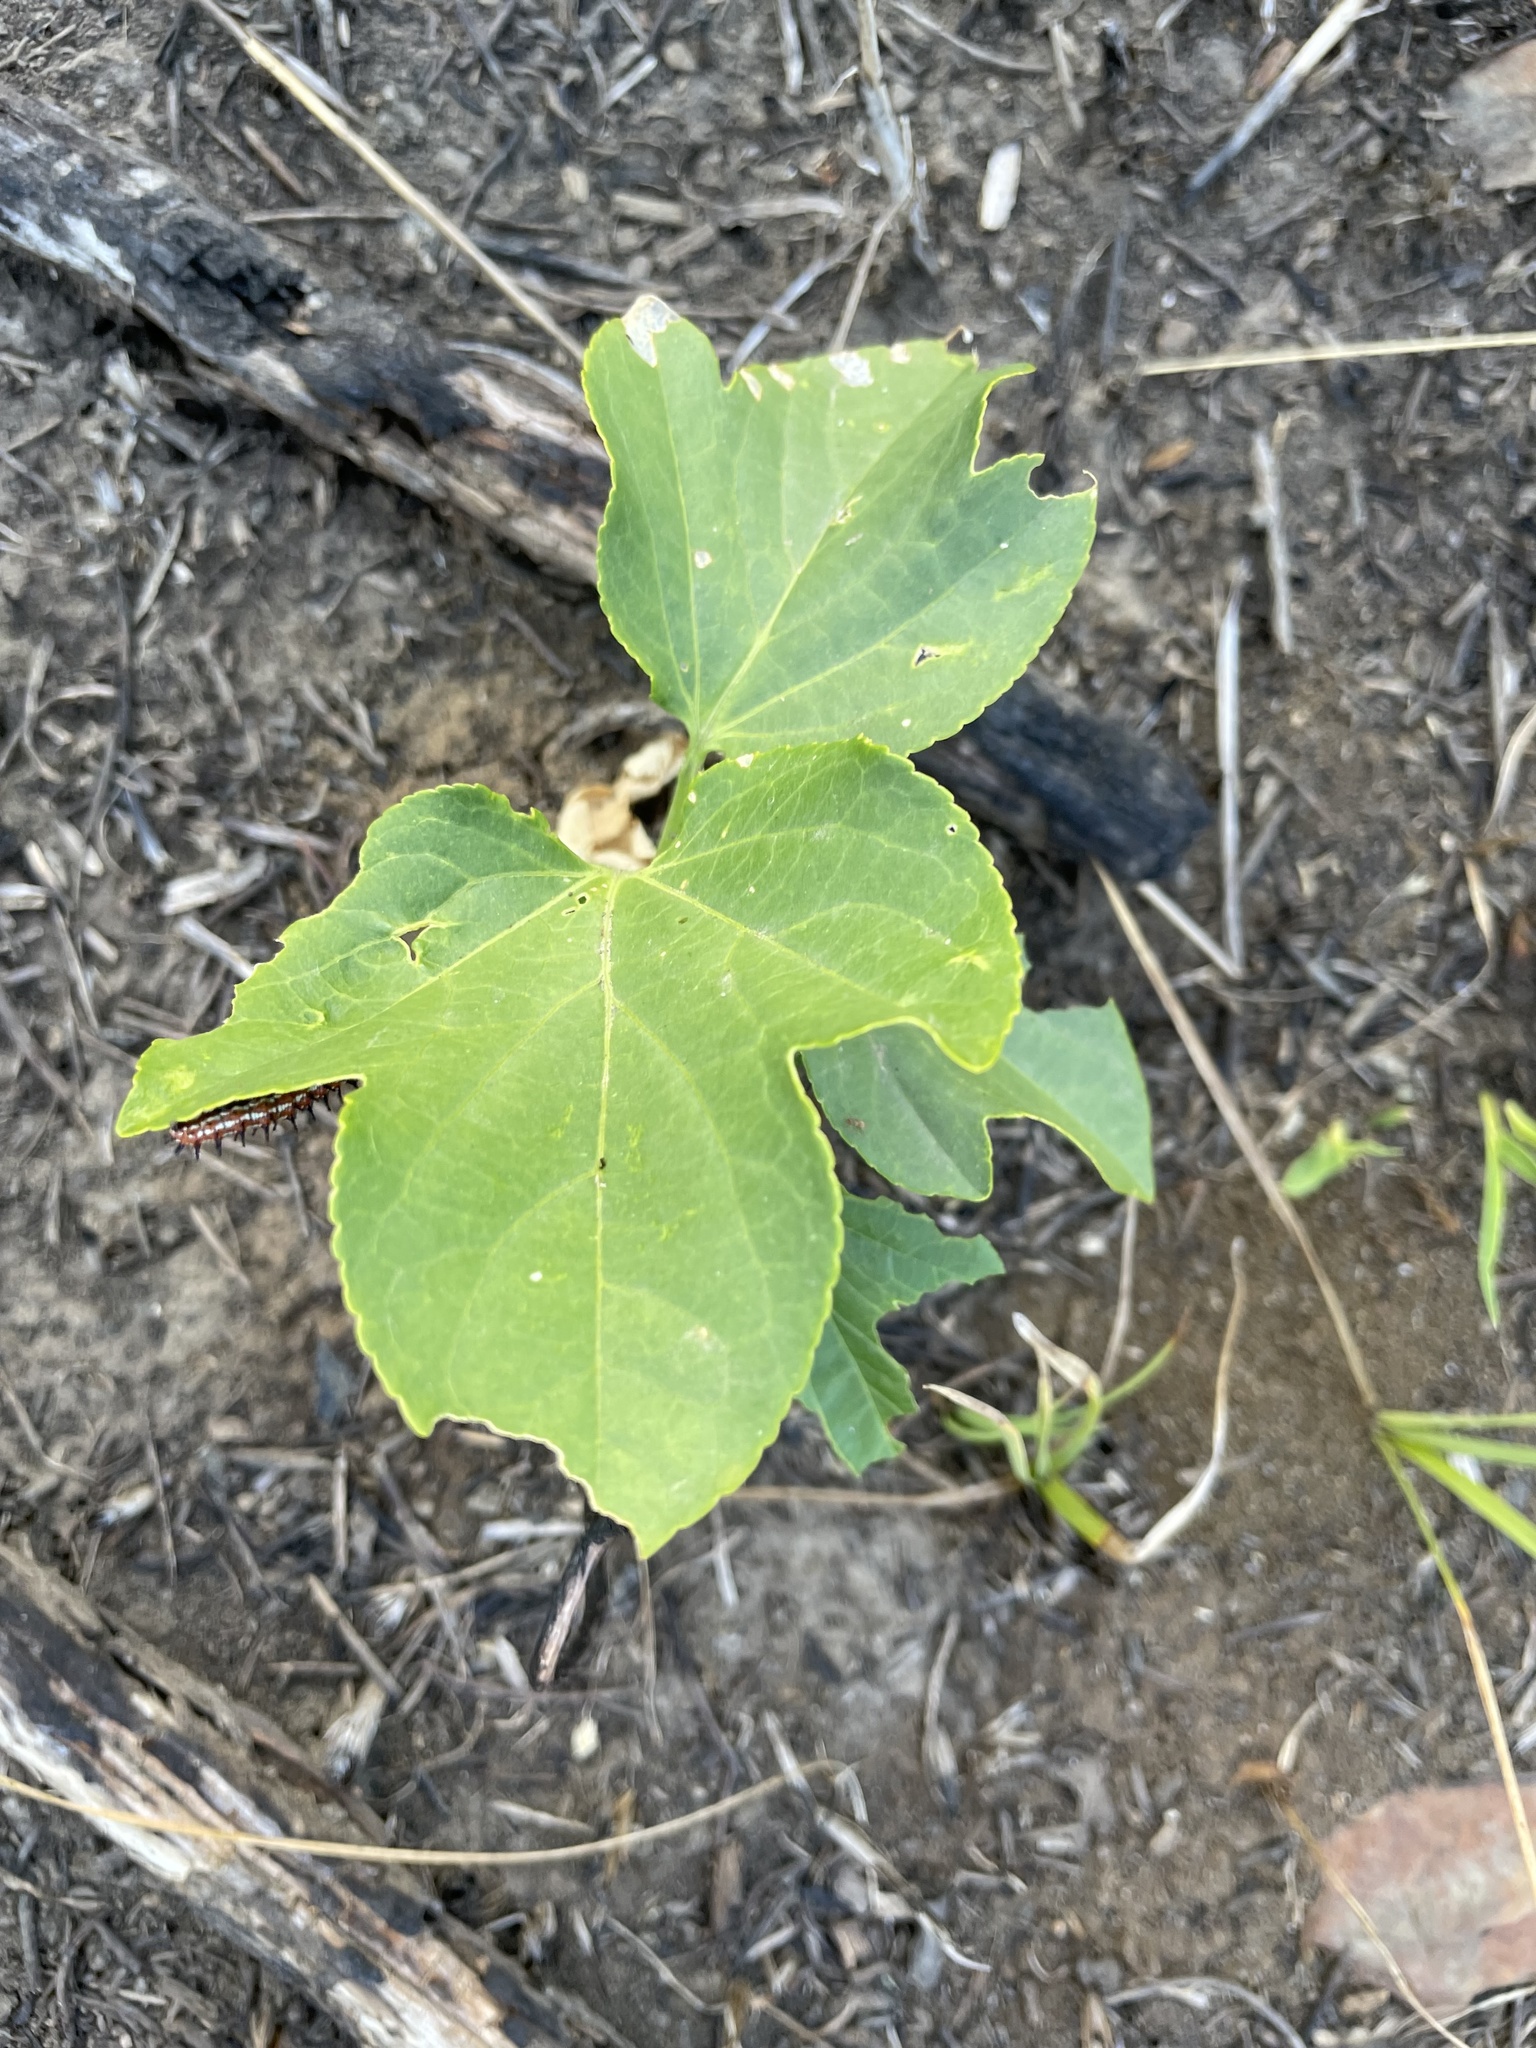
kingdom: Plantae
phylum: Tracheophyta
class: Magnoliopsida
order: Malpighiales
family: Passifloraceae
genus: Passiflora
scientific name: Passiflora incarnata
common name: Apricot-vine
